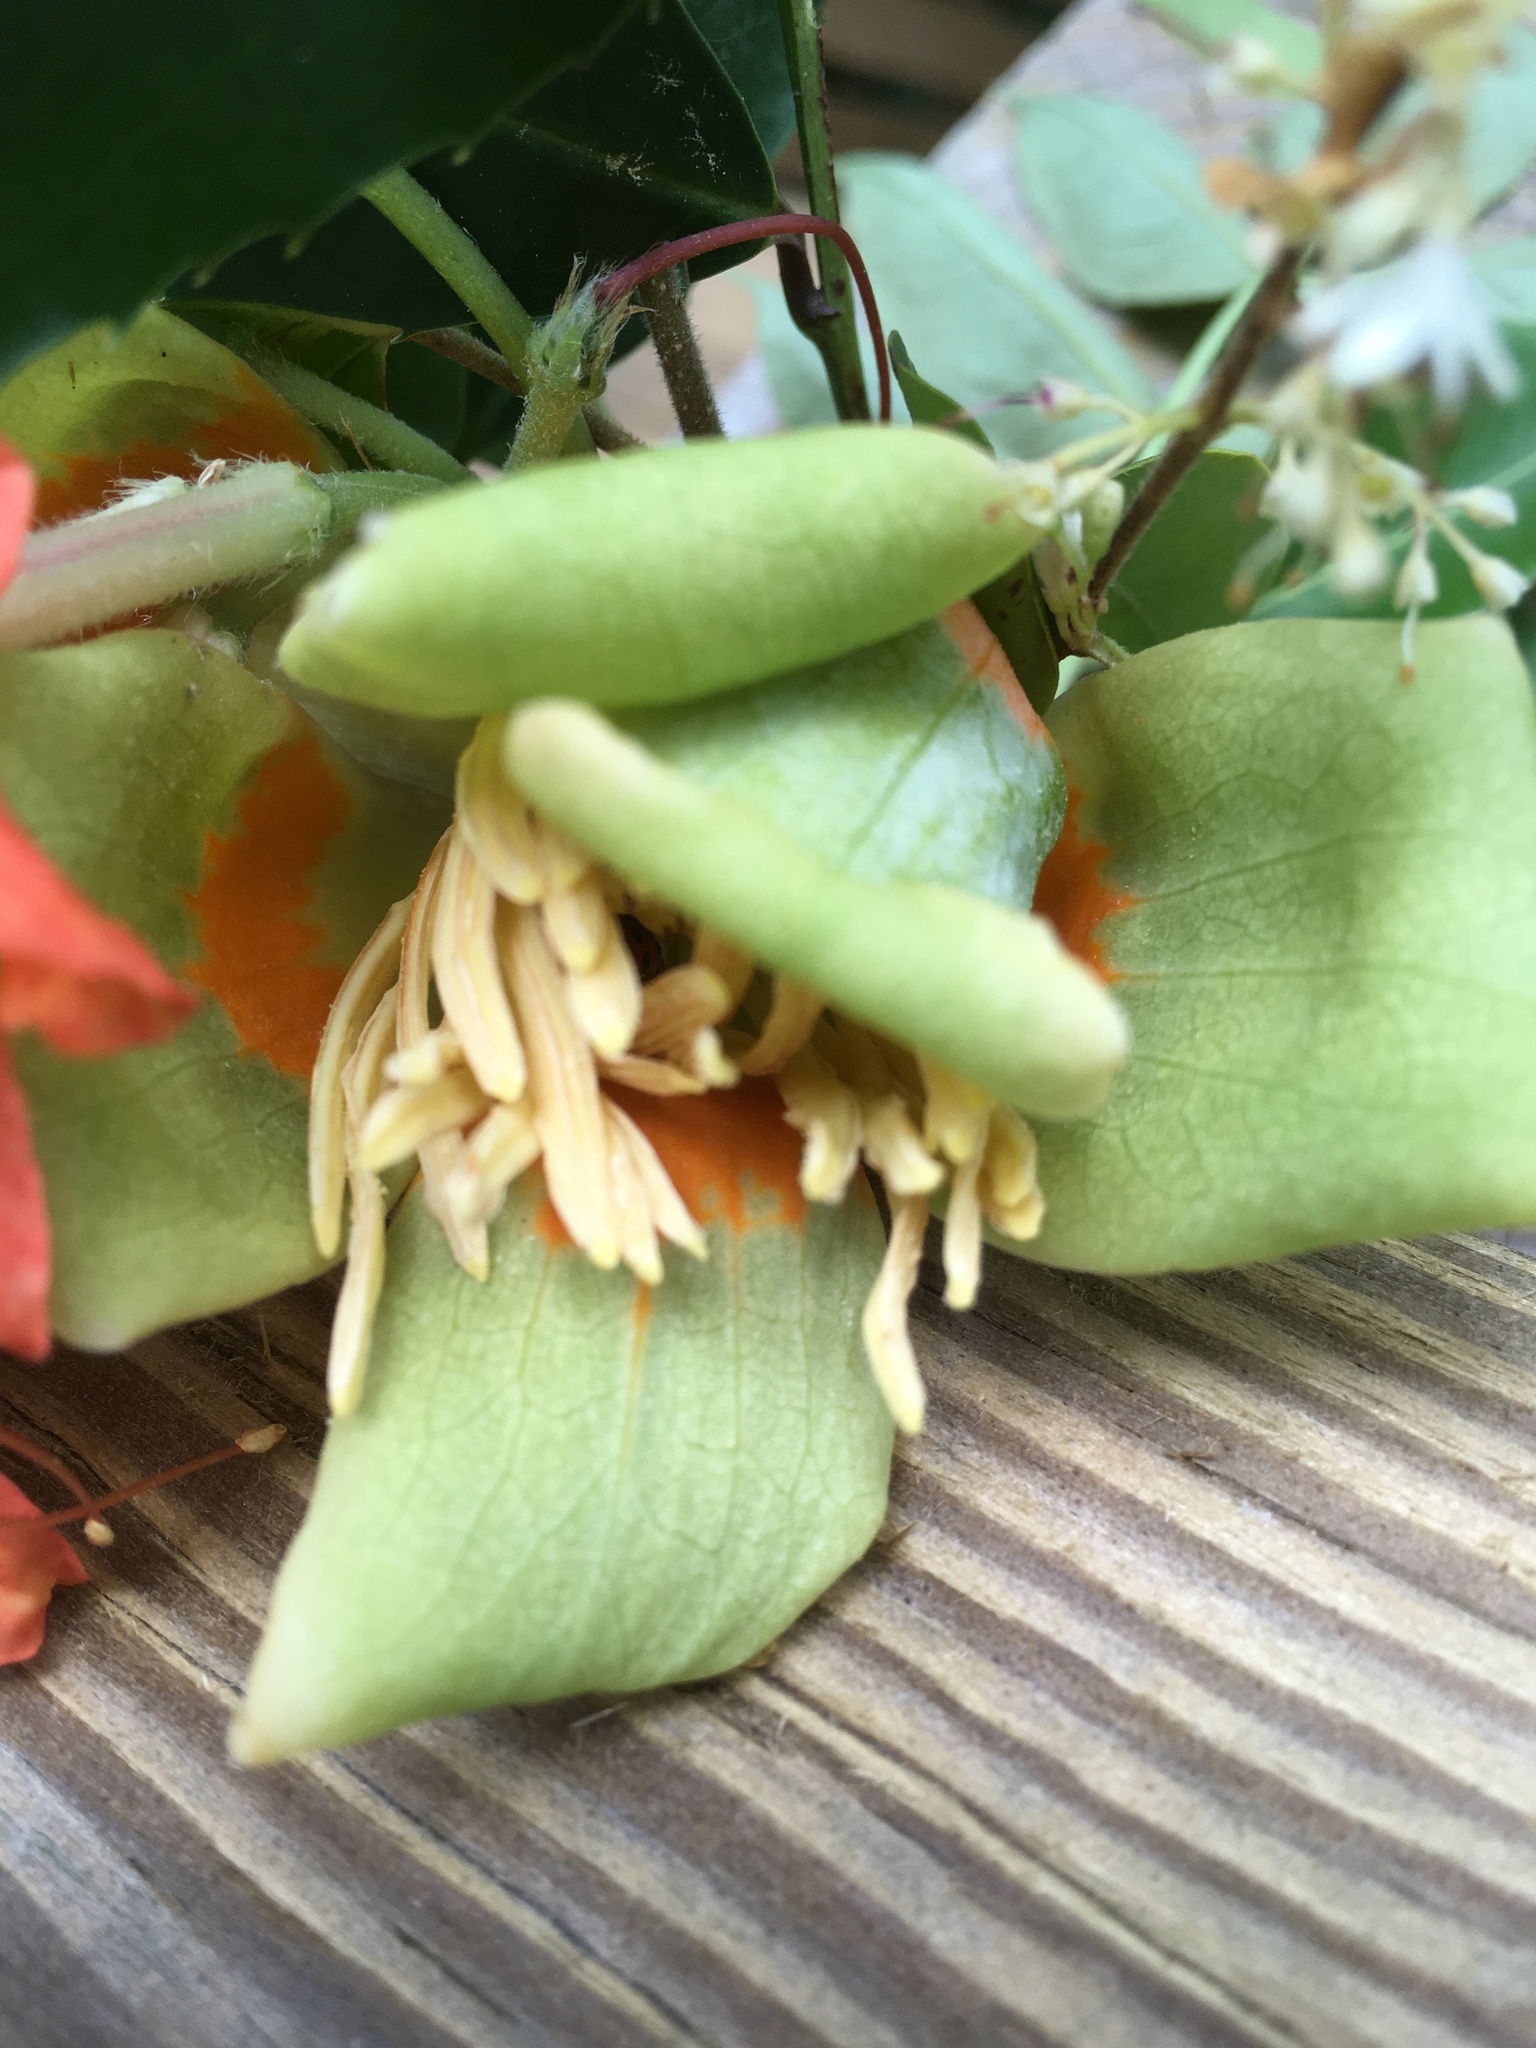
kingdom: Plantae
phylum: Tracheophyta
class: Magnoliopsida
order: Magnoliales
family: Magnoliaceae
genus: Liriodendron
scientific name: Liriodendron tulipifera
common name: Tulip tree
